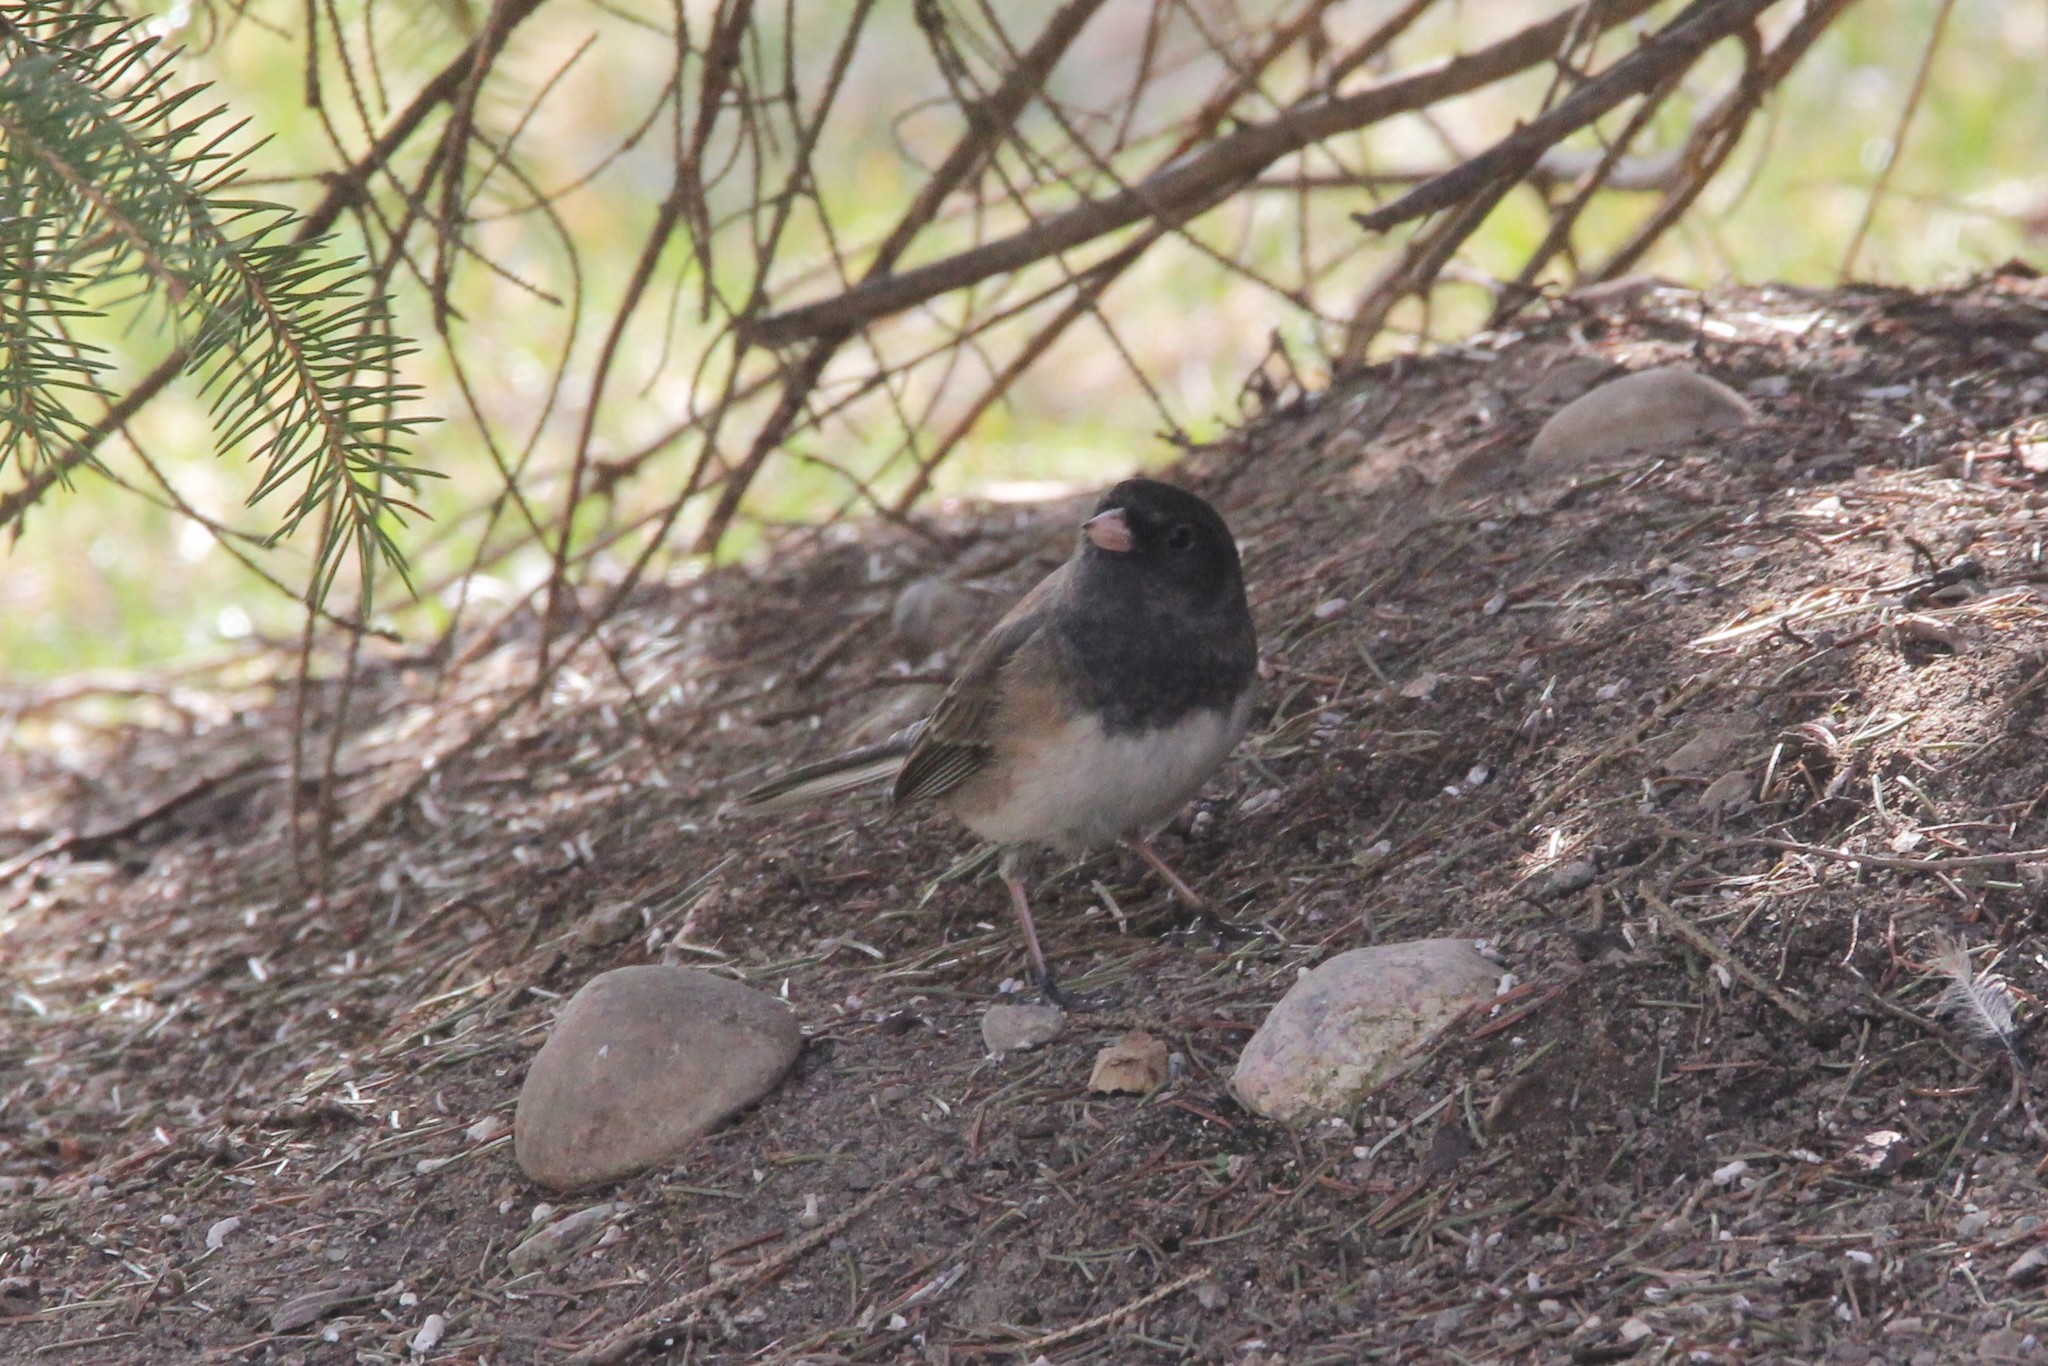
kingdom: Animalia
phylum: Chordata
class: Aves
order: Passeriformes
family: Passerellidae
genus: Junco
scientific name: Junco hyemalis
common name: Dark-eyed junco
